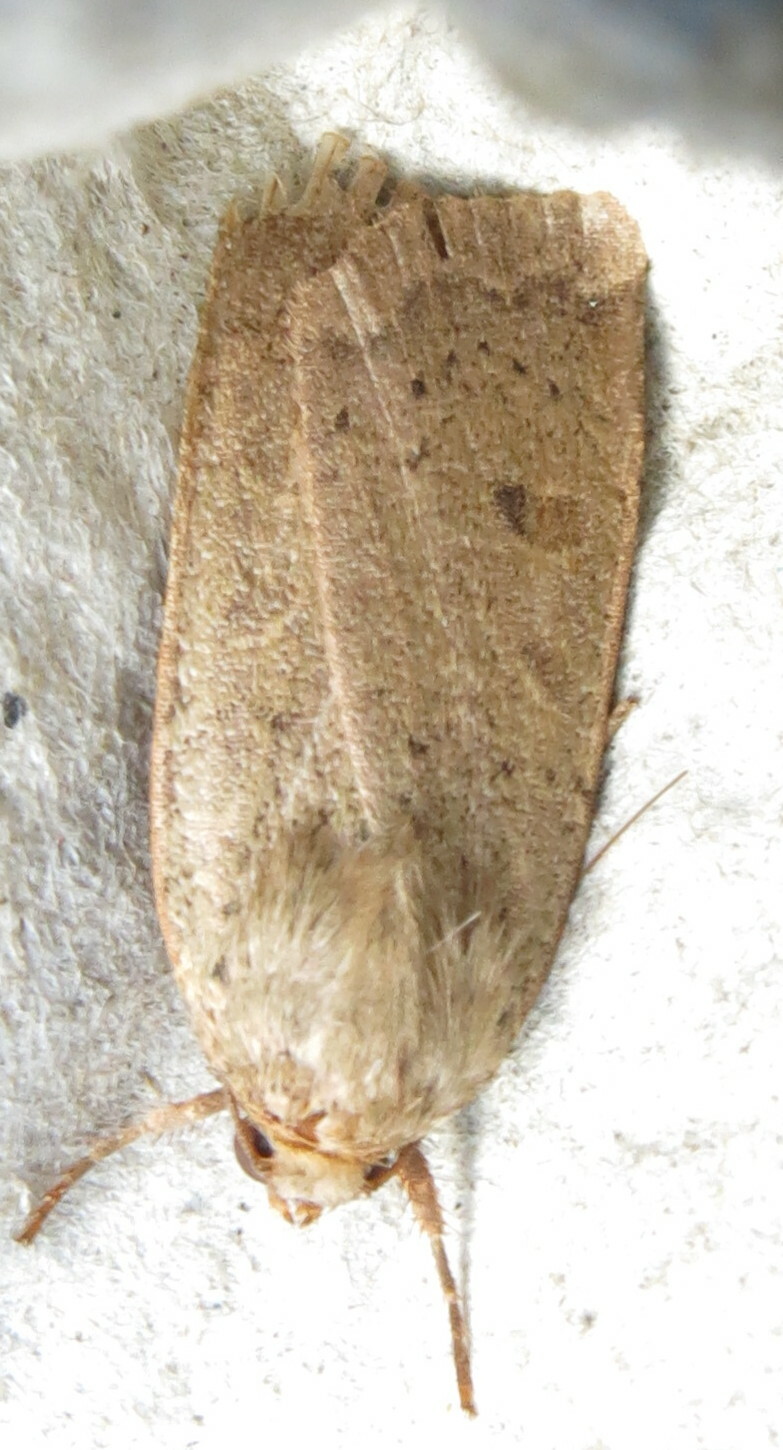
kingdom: Animalia
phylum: Arthropoda
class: Insecta
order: Lepidoptera
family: Noctuidae
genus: Noctua
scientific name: Noctua comes
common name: Lesser yellow underwing
